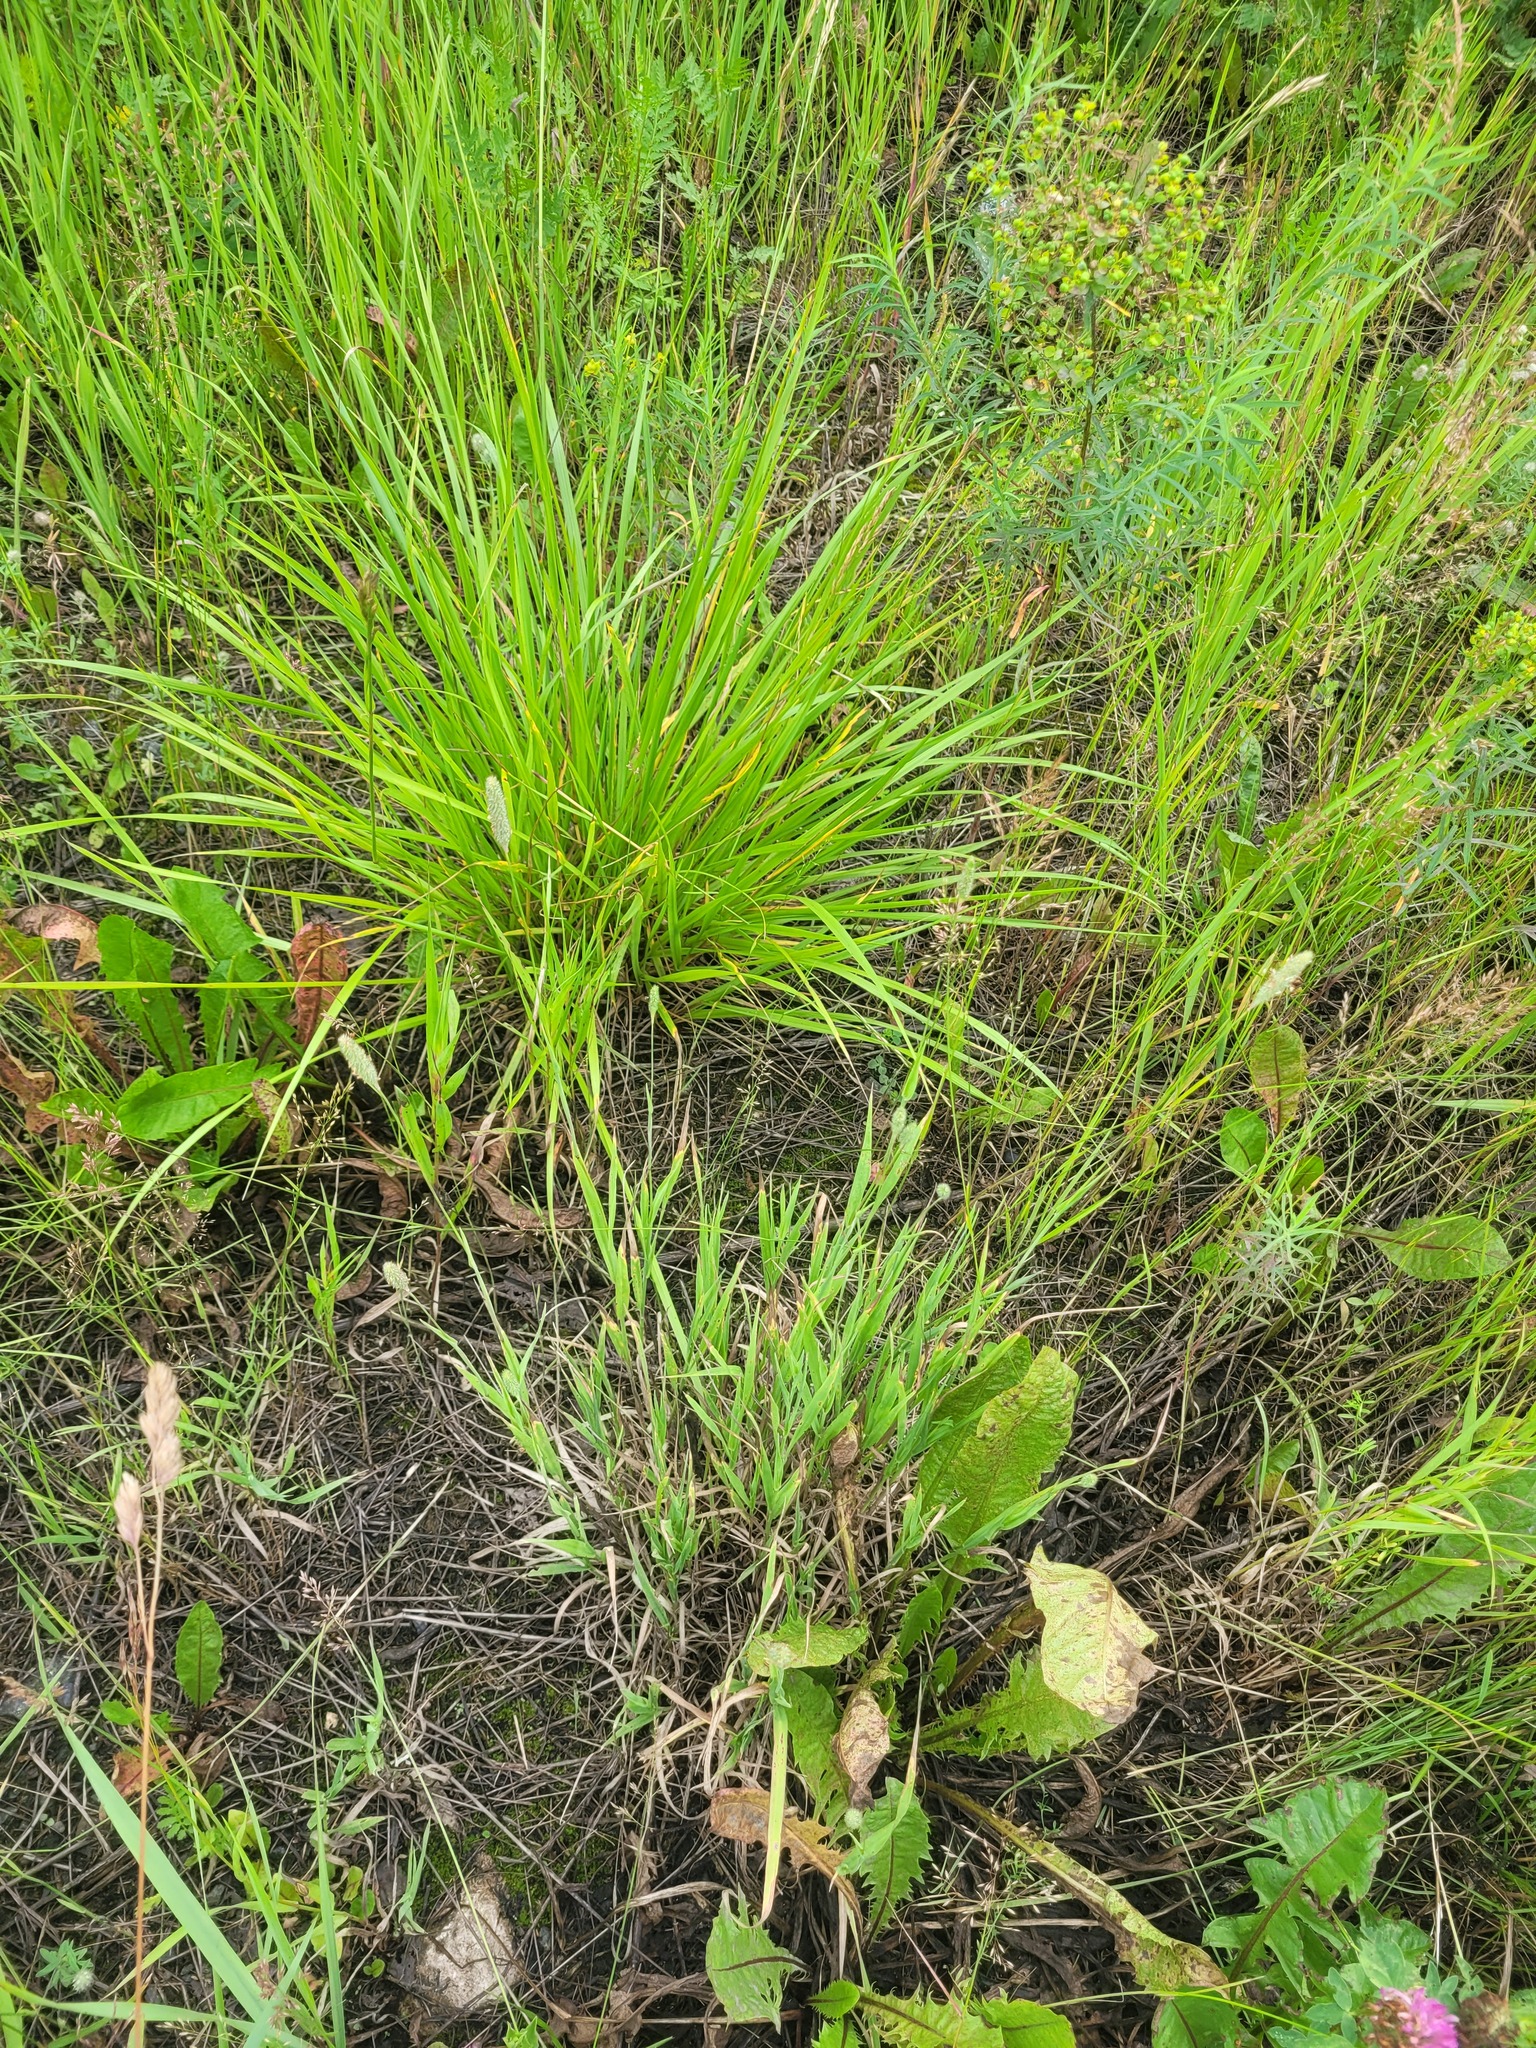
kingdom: Plantae
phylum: Tracheophyta
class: Liliopsida
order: Poales
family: Poaceae
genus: Phleum
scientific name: Phleum pratense
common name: Timothy grass
